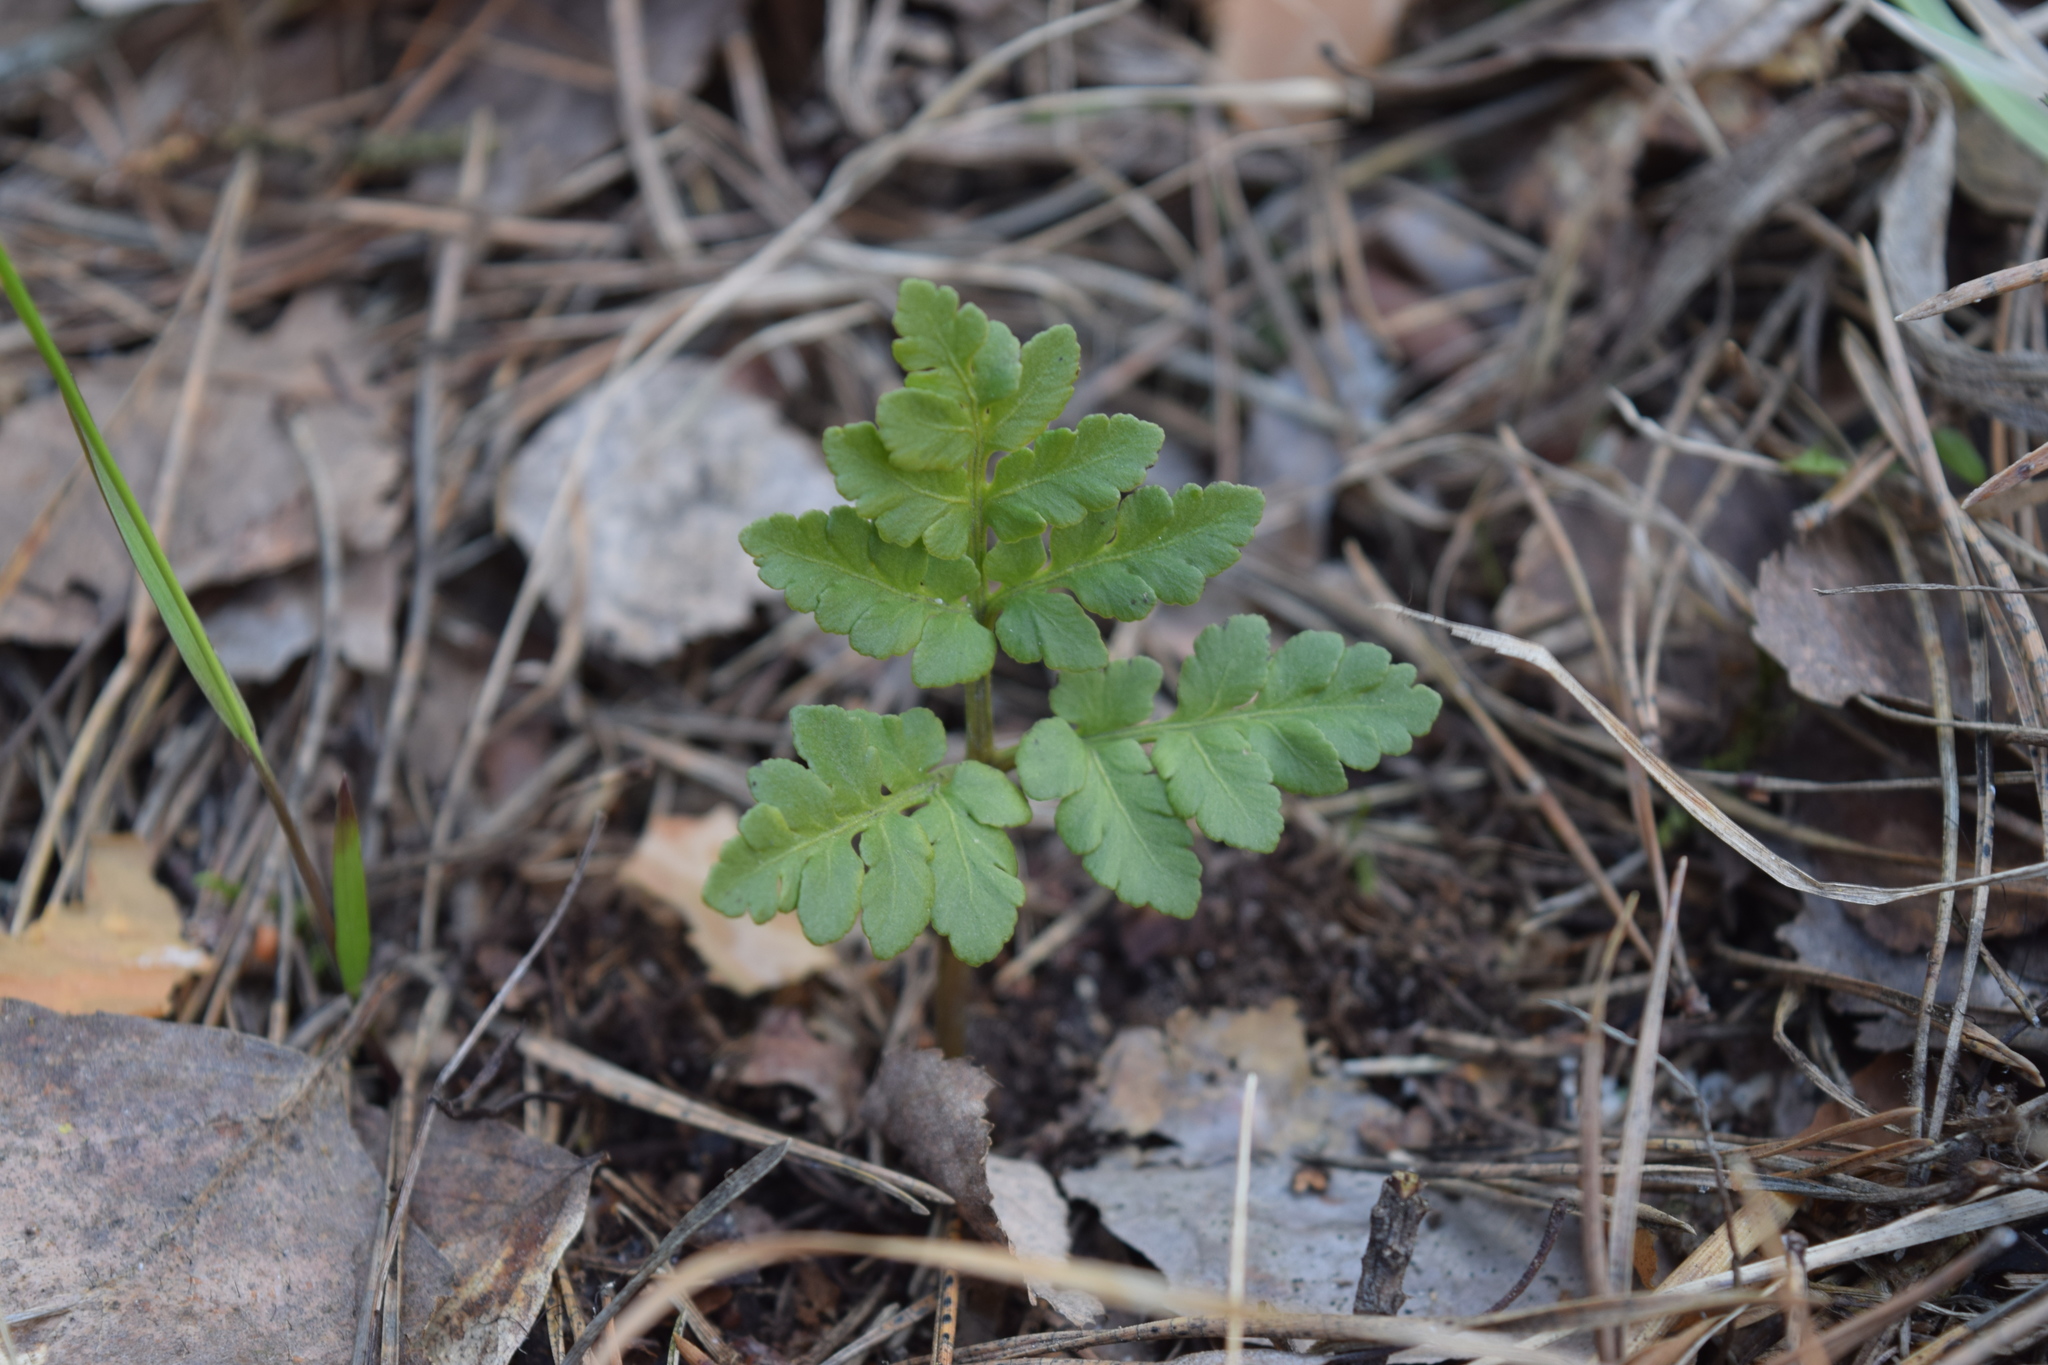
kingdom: Plantae
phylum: Tracheophyta
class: Polypodiopsida
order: Ophioglossales
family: Ophioglossaceae
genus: Sceptridium
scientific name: Sceptridium multifidum
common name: Leathery grape fern
